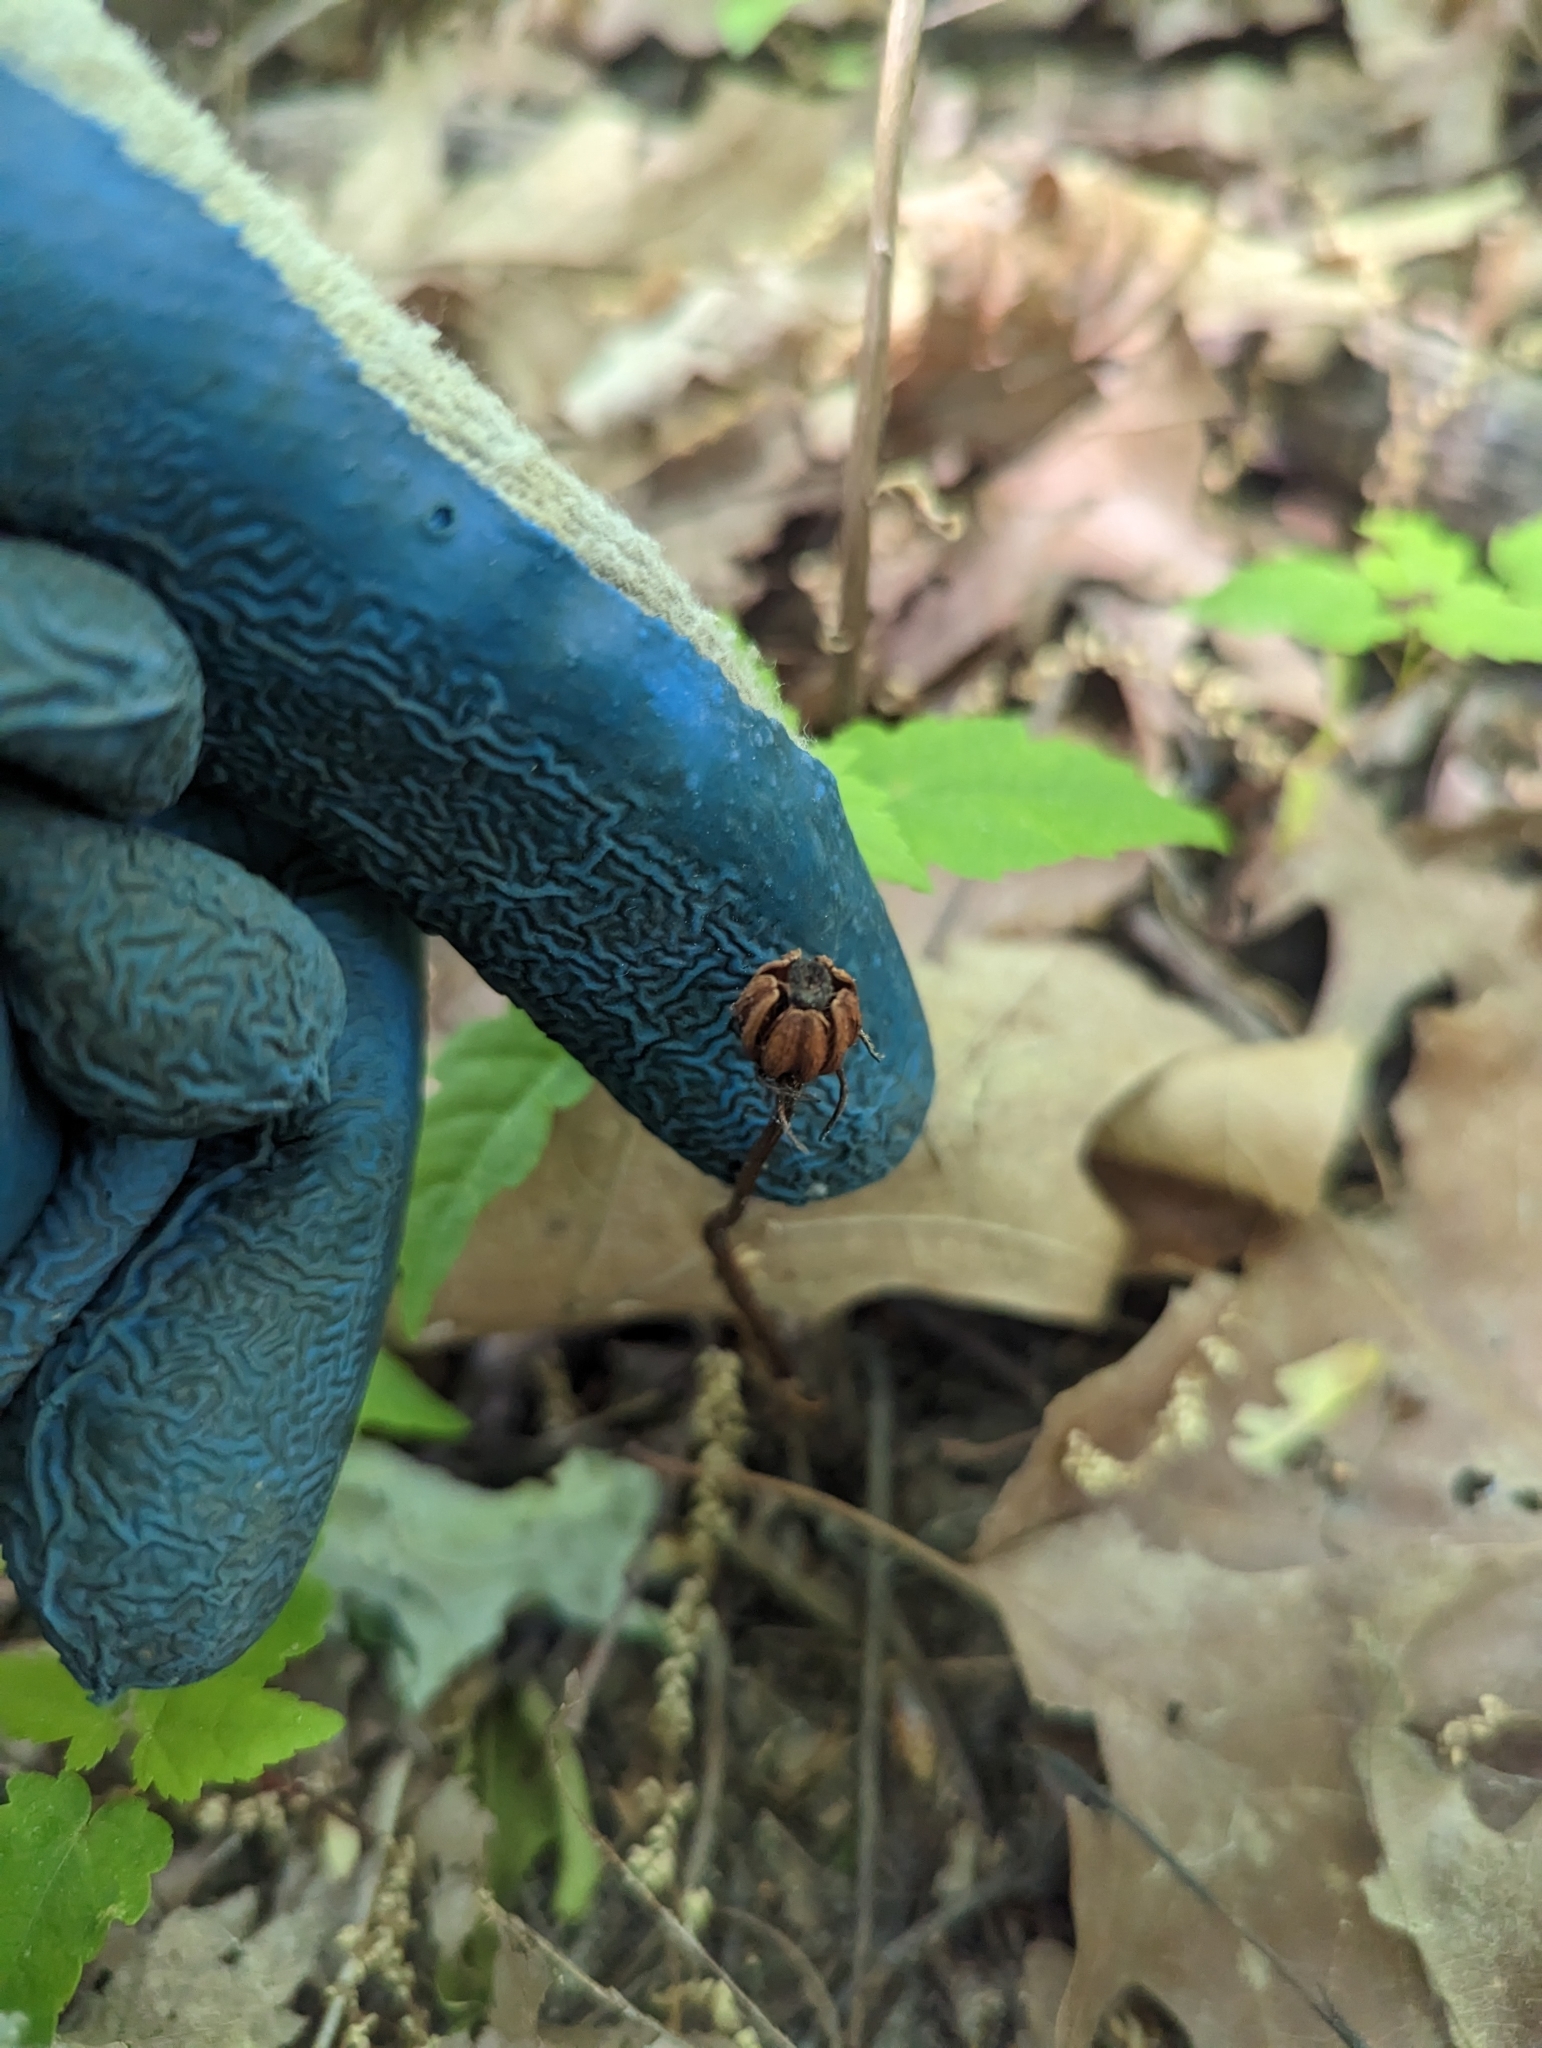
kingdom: Plantae
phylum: Tracheophyta
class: Magnoliopsida
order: Ericales
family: Ericaceae
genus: Monotropa
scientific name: Monotropa uniflora
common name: Convulsion root
